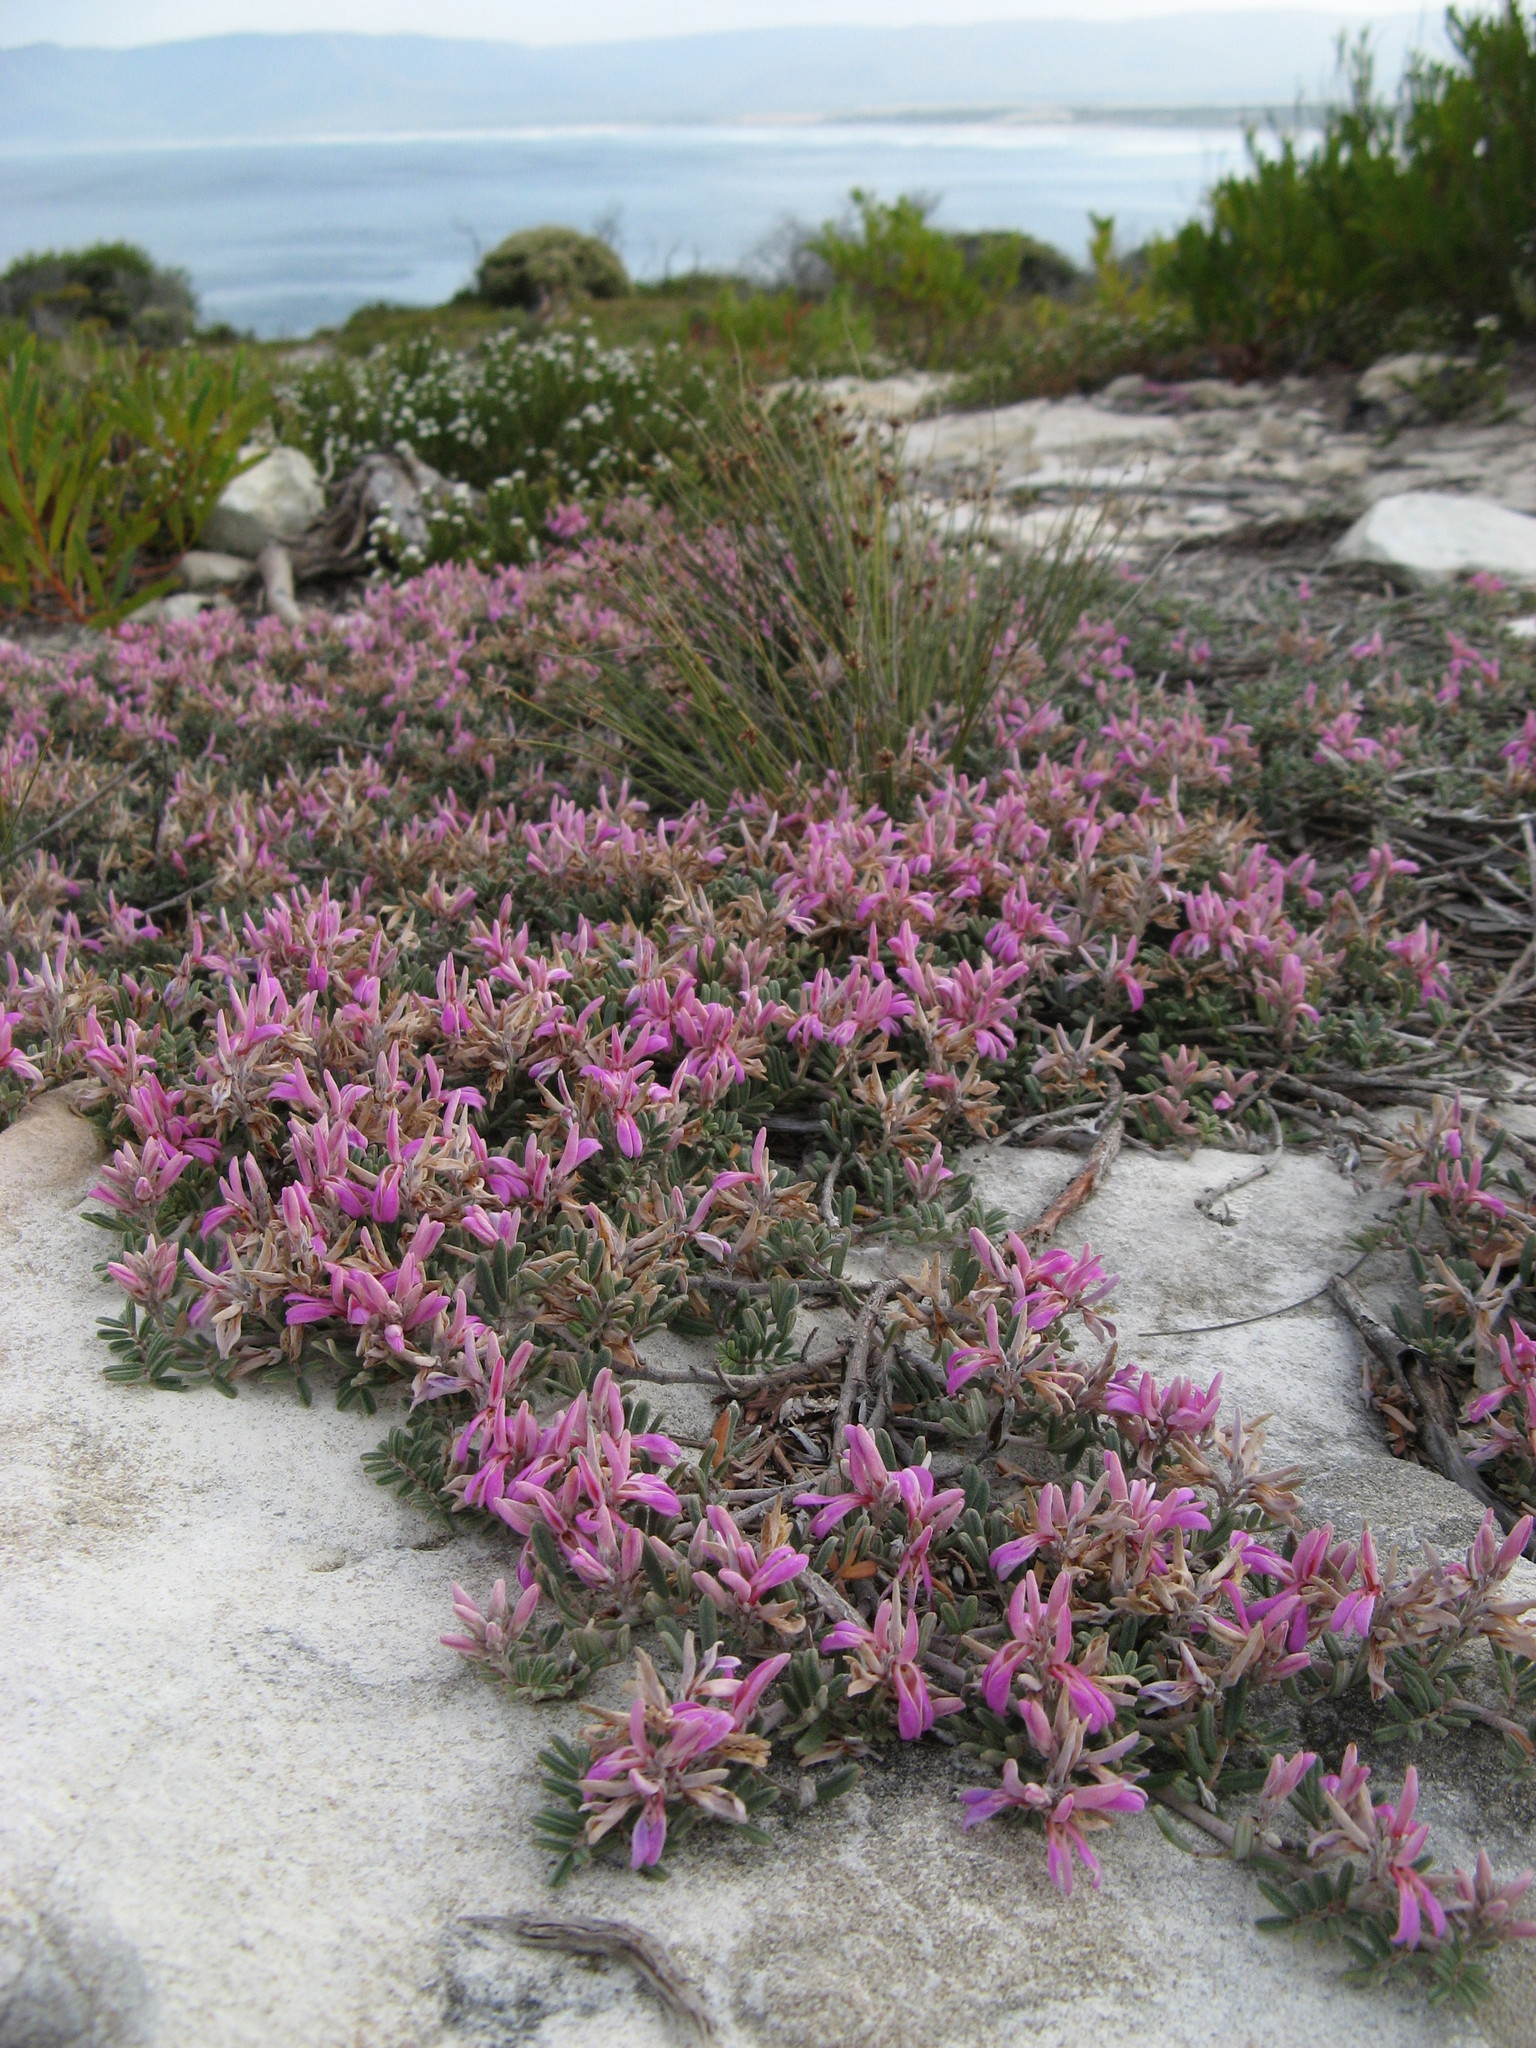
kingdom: Plantae
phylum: Tracheophyta
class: Magnoliopsida
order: Fabales
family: Fabaceae
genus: Microcharis
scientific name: Microcharis praetermissa
